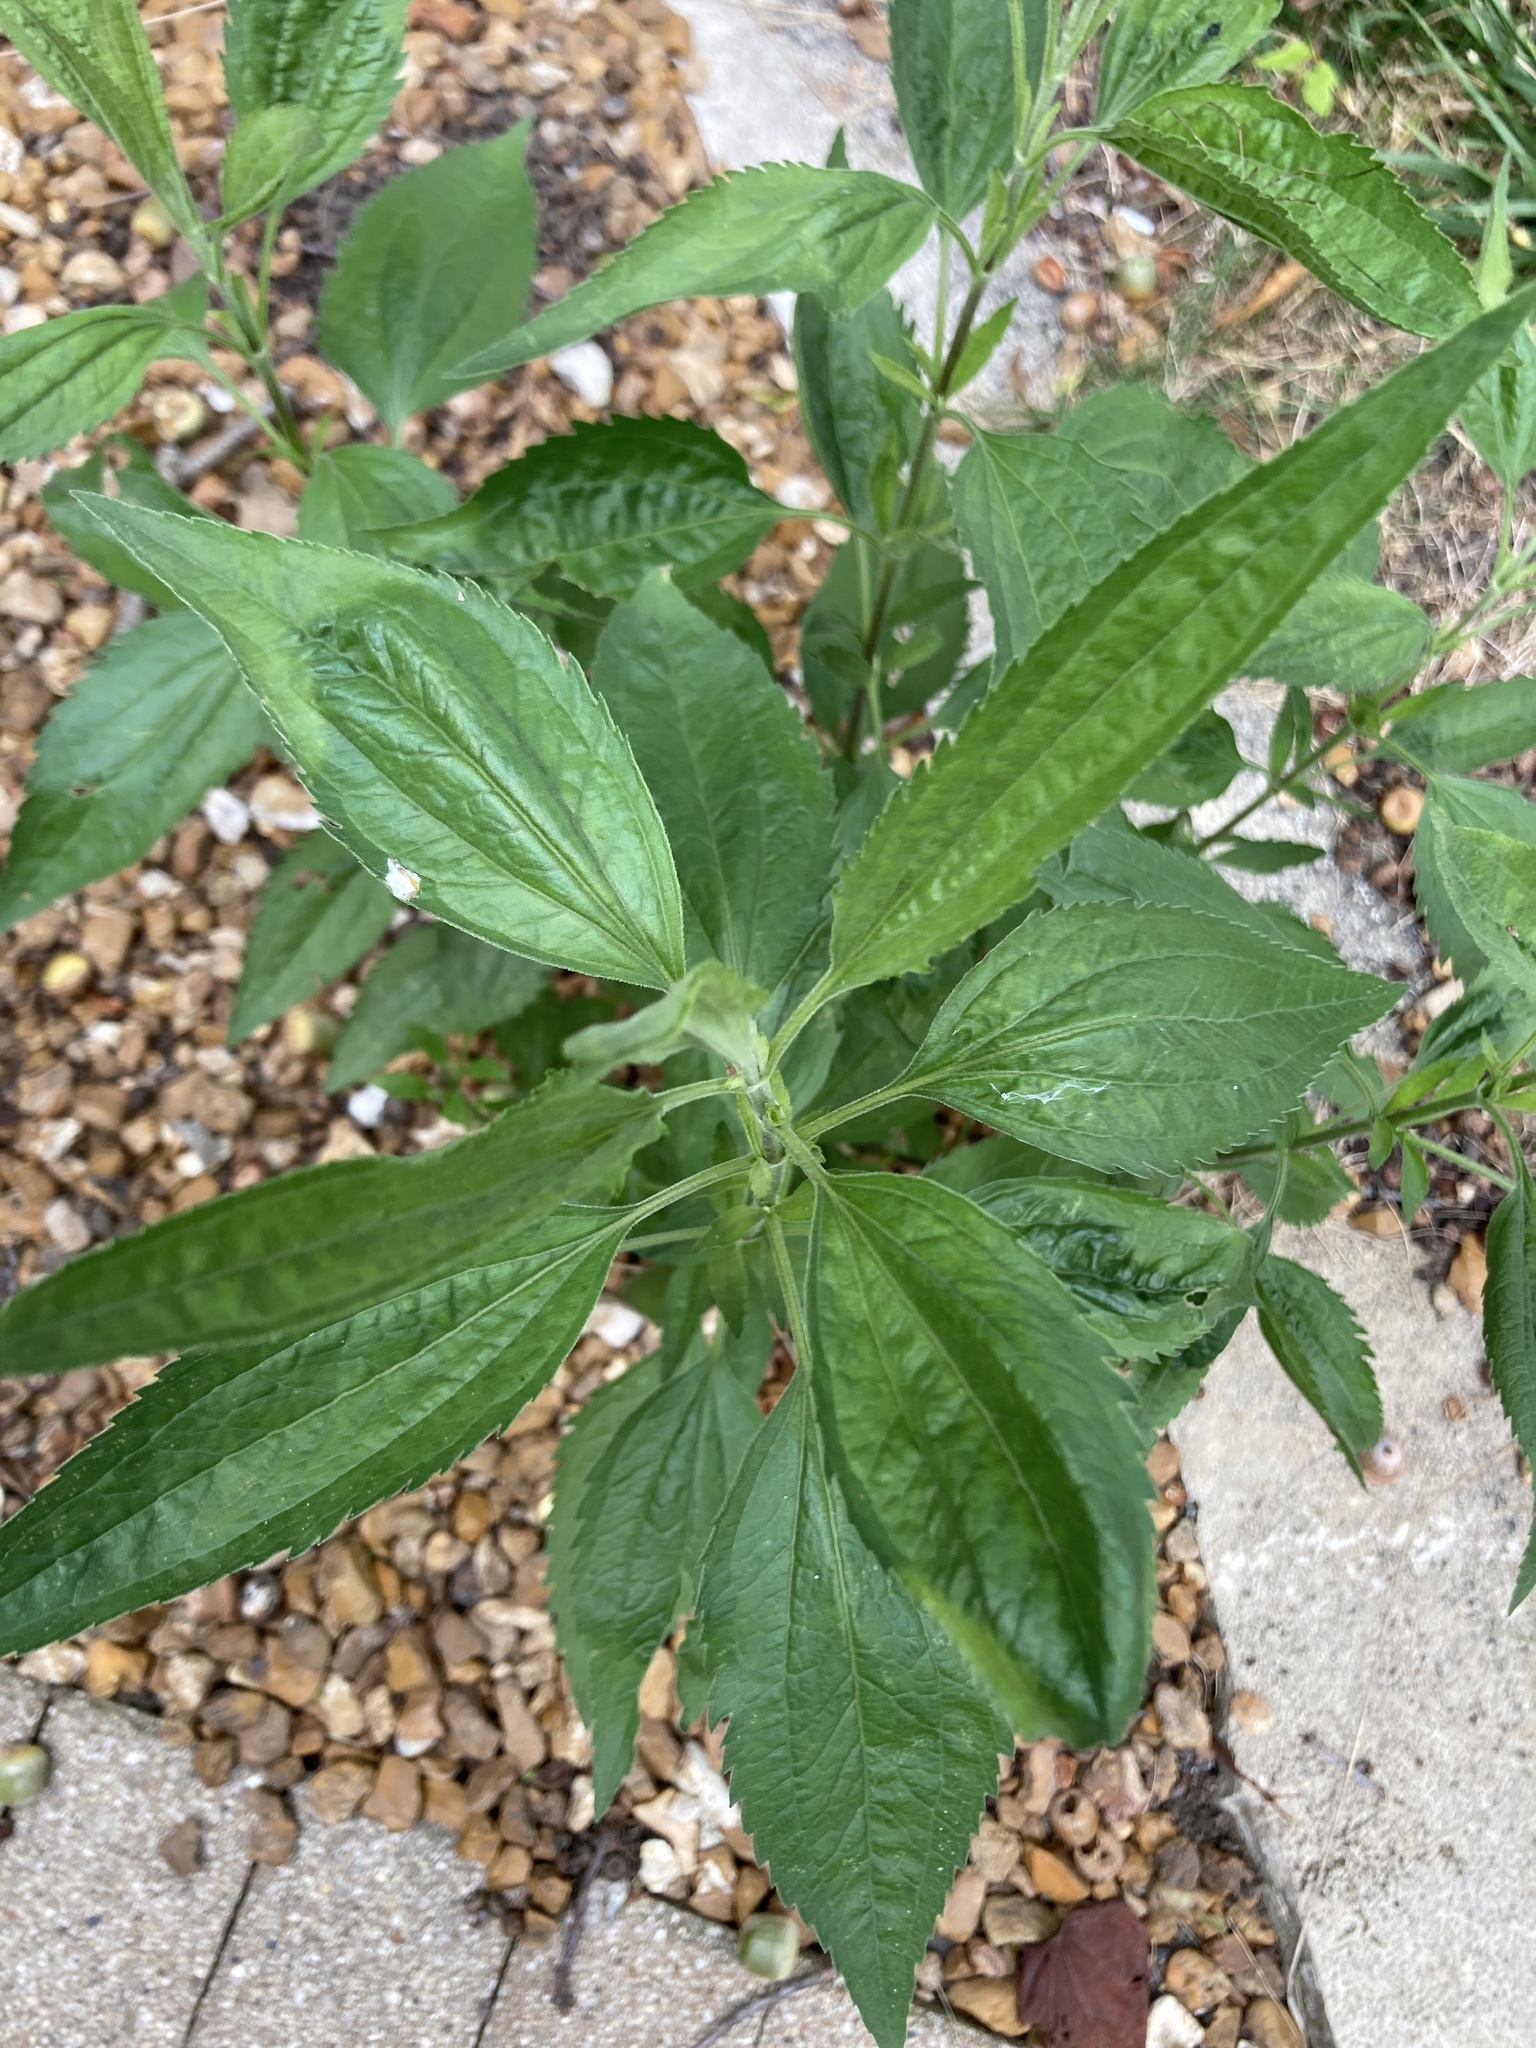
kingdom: Plantae
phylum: Tracheophyta
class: Magnoliopsida
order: Asterales
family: Asteraceae
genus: Eupatorium
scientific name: Eupatorium serotinum
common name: Late boneset
